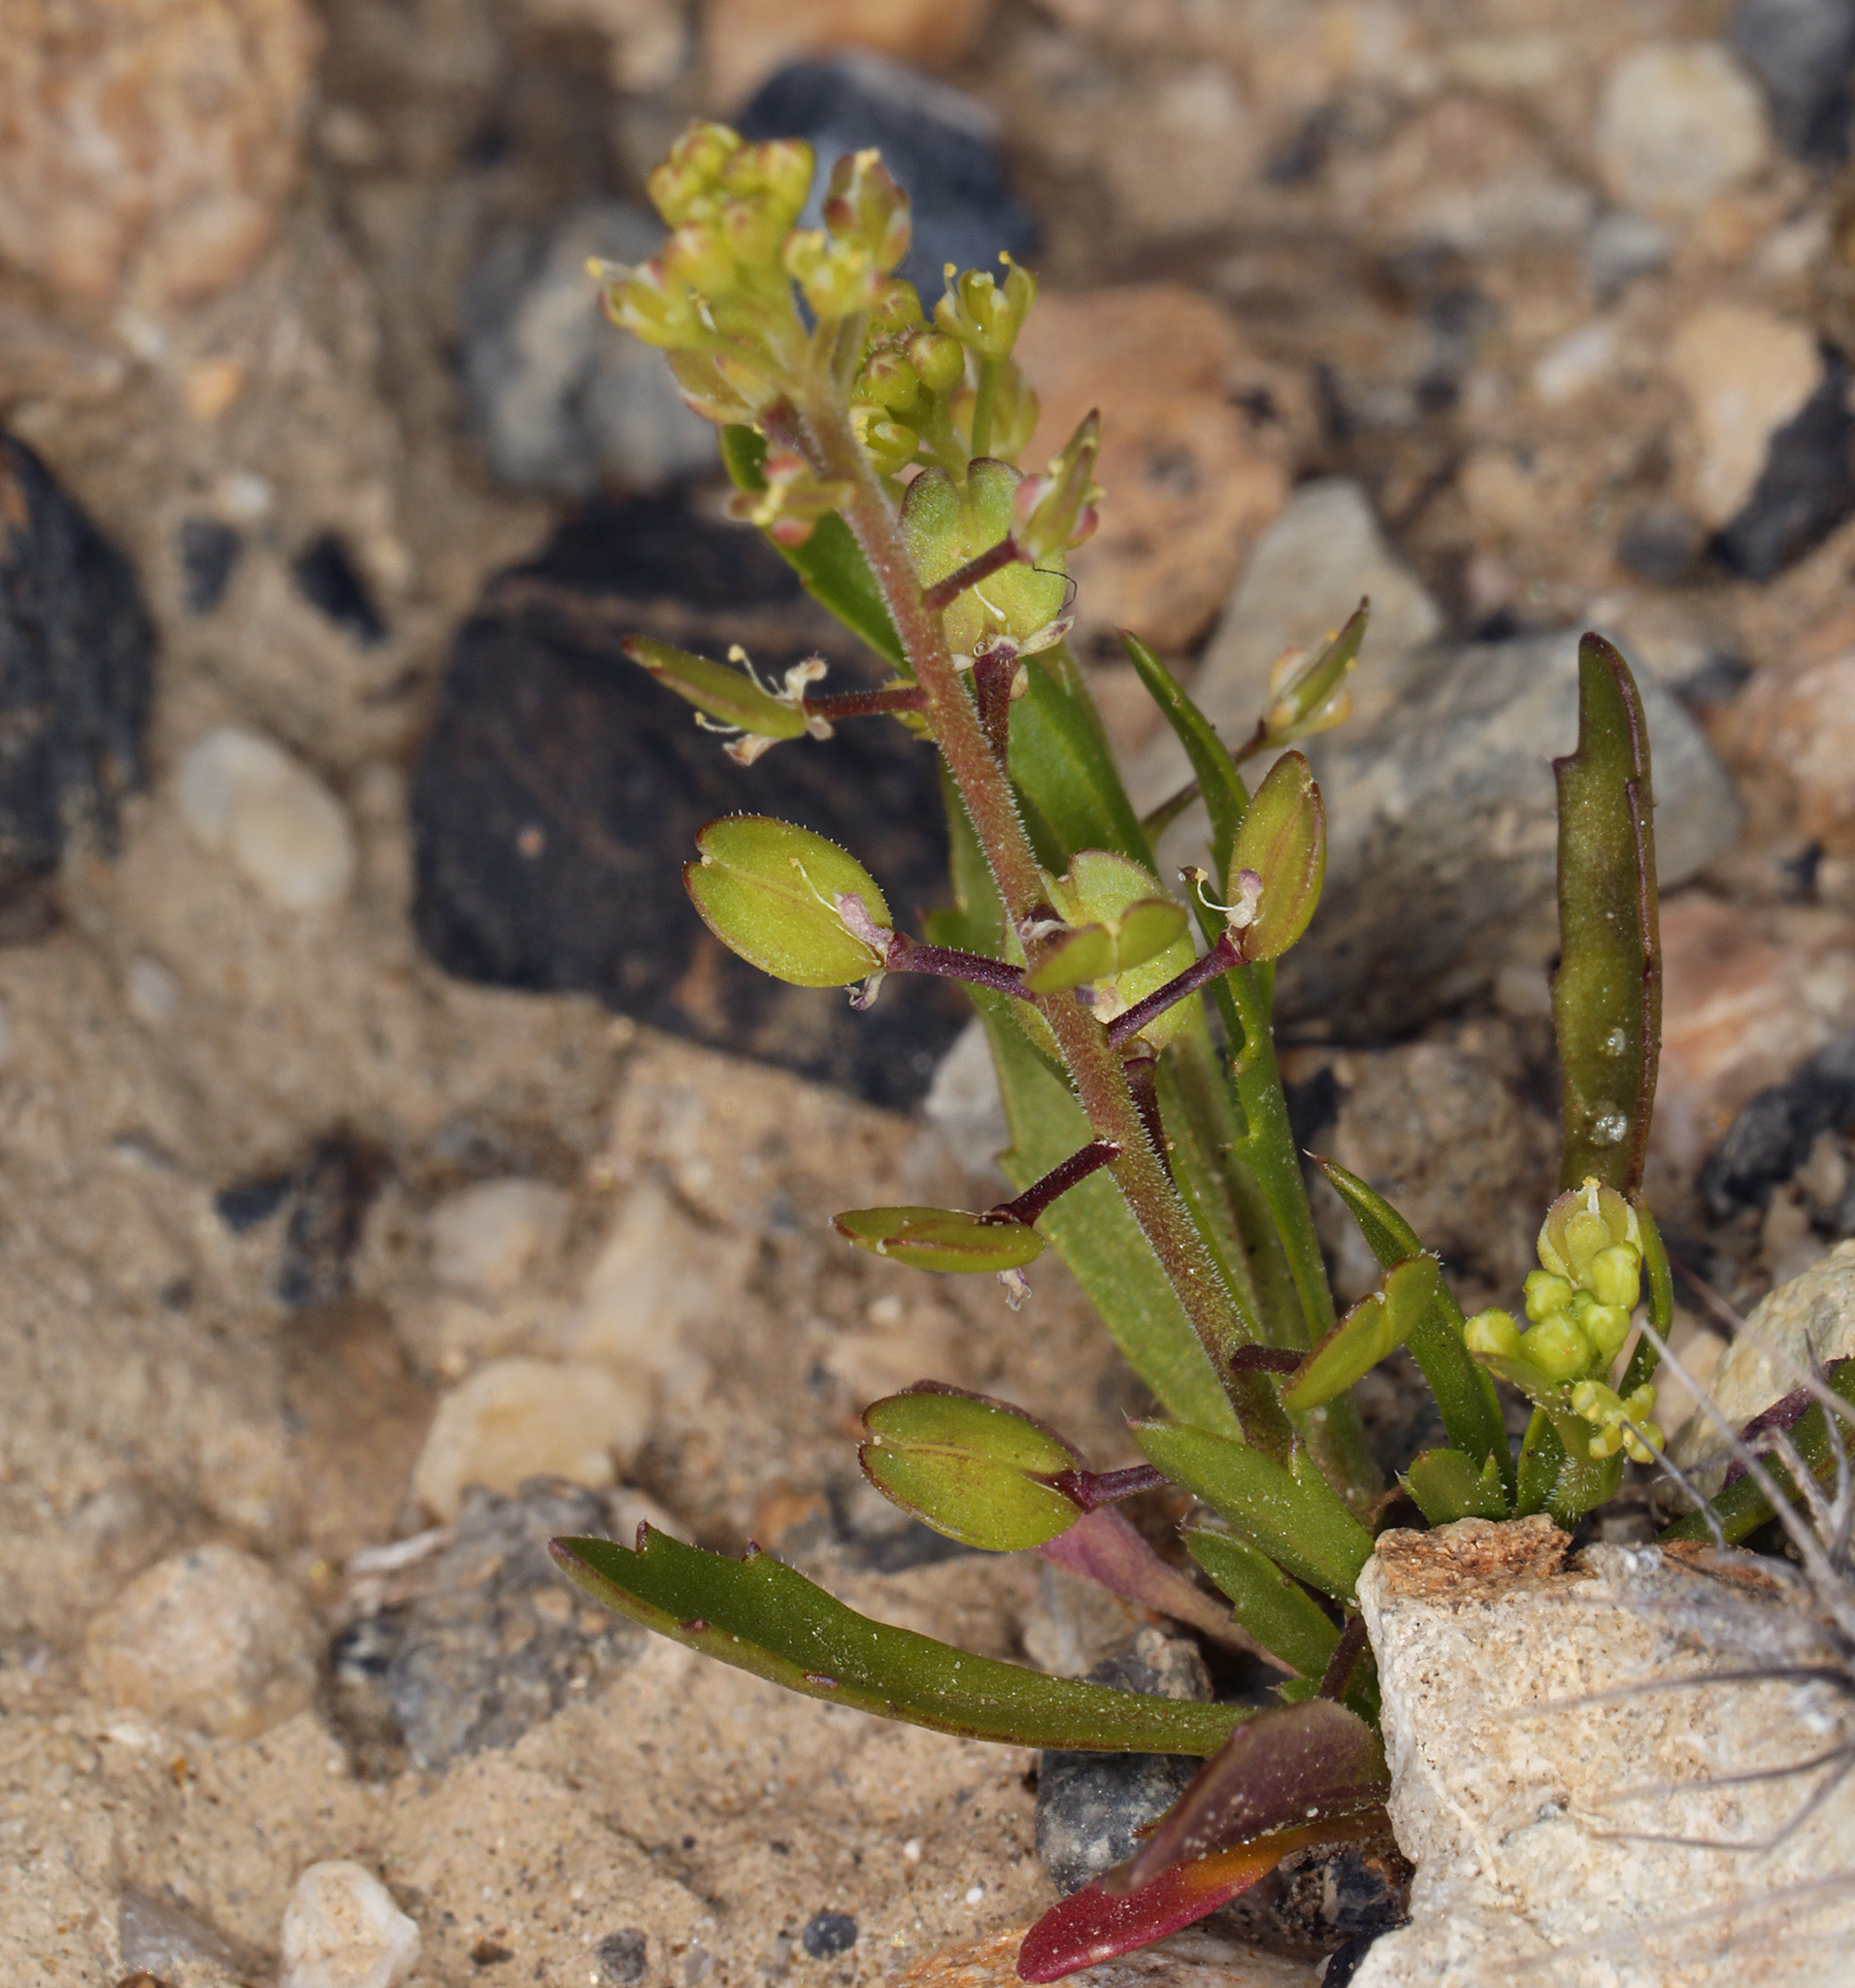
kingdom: Plantae
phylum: Tracheophyta
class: Magnoliopsida
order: Brassicales
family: Brassicaceae
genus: Lepidium
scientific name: Lepidium lasiocarpum
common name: Hairy-pod pepperwort
